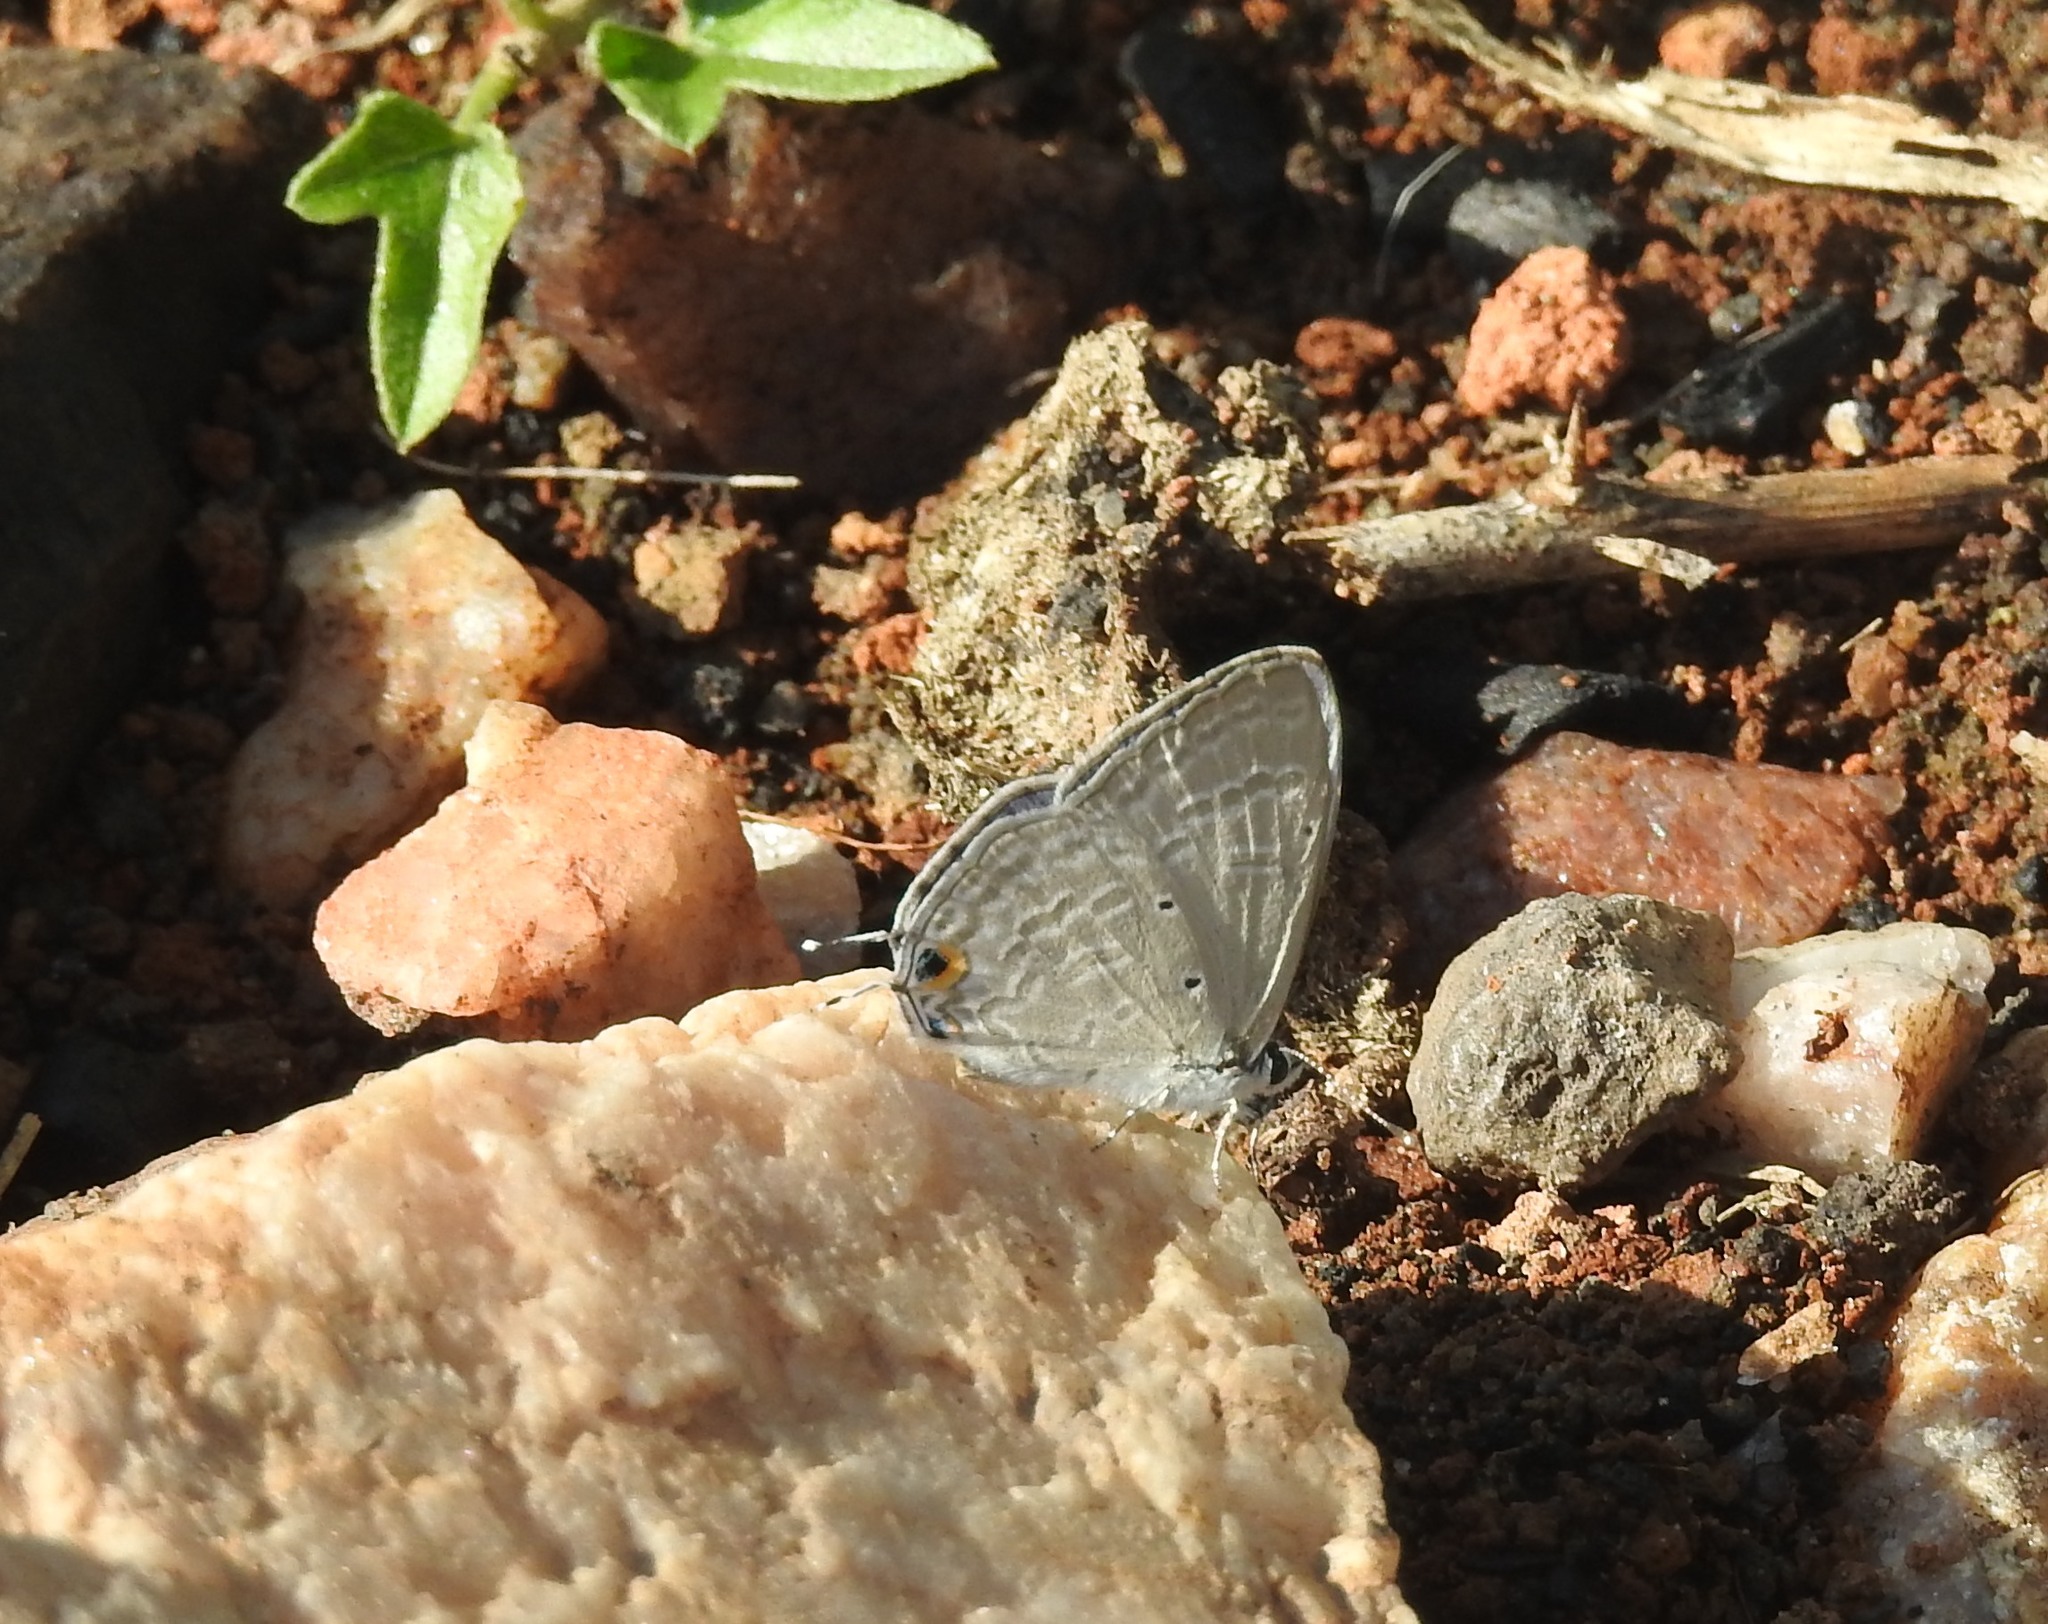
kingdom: Animalia
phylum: Arthropoda
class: Insecta
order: Lepidoptera
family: Lycaenidae
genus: Catochrysops
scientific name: Catochrysops strabo
